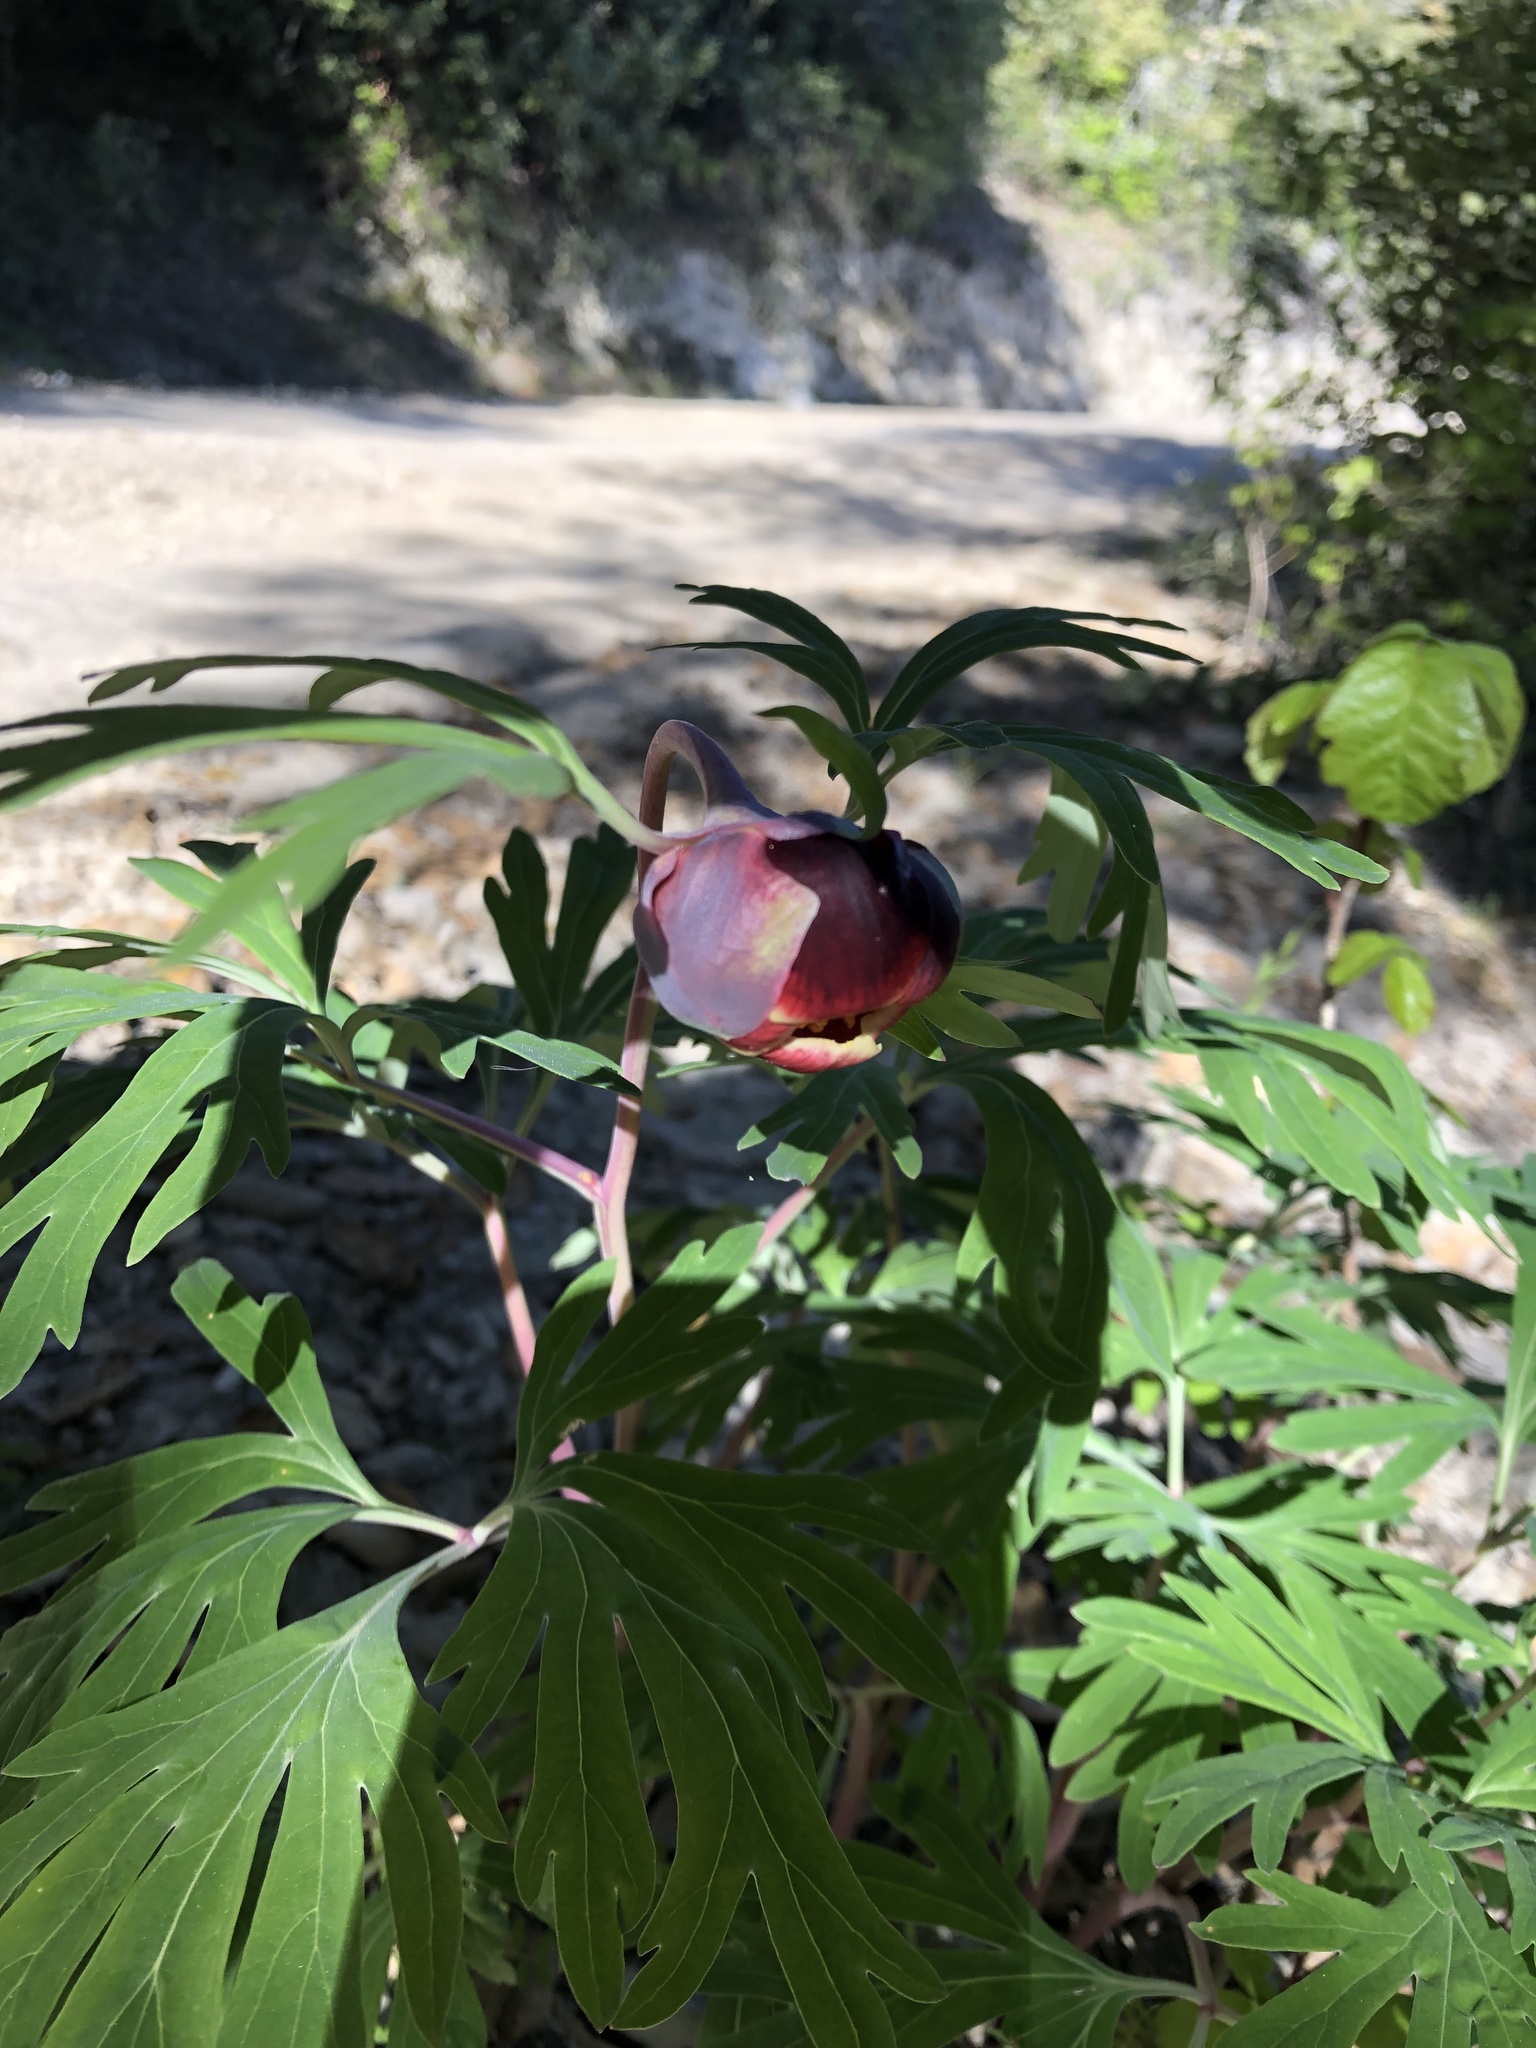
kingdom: Plantae
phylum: Tracheophyta
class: Magnoliopsida
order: Saxifragales
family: Paeoniaceae
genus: Paeonia
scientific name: Paeonia californica
